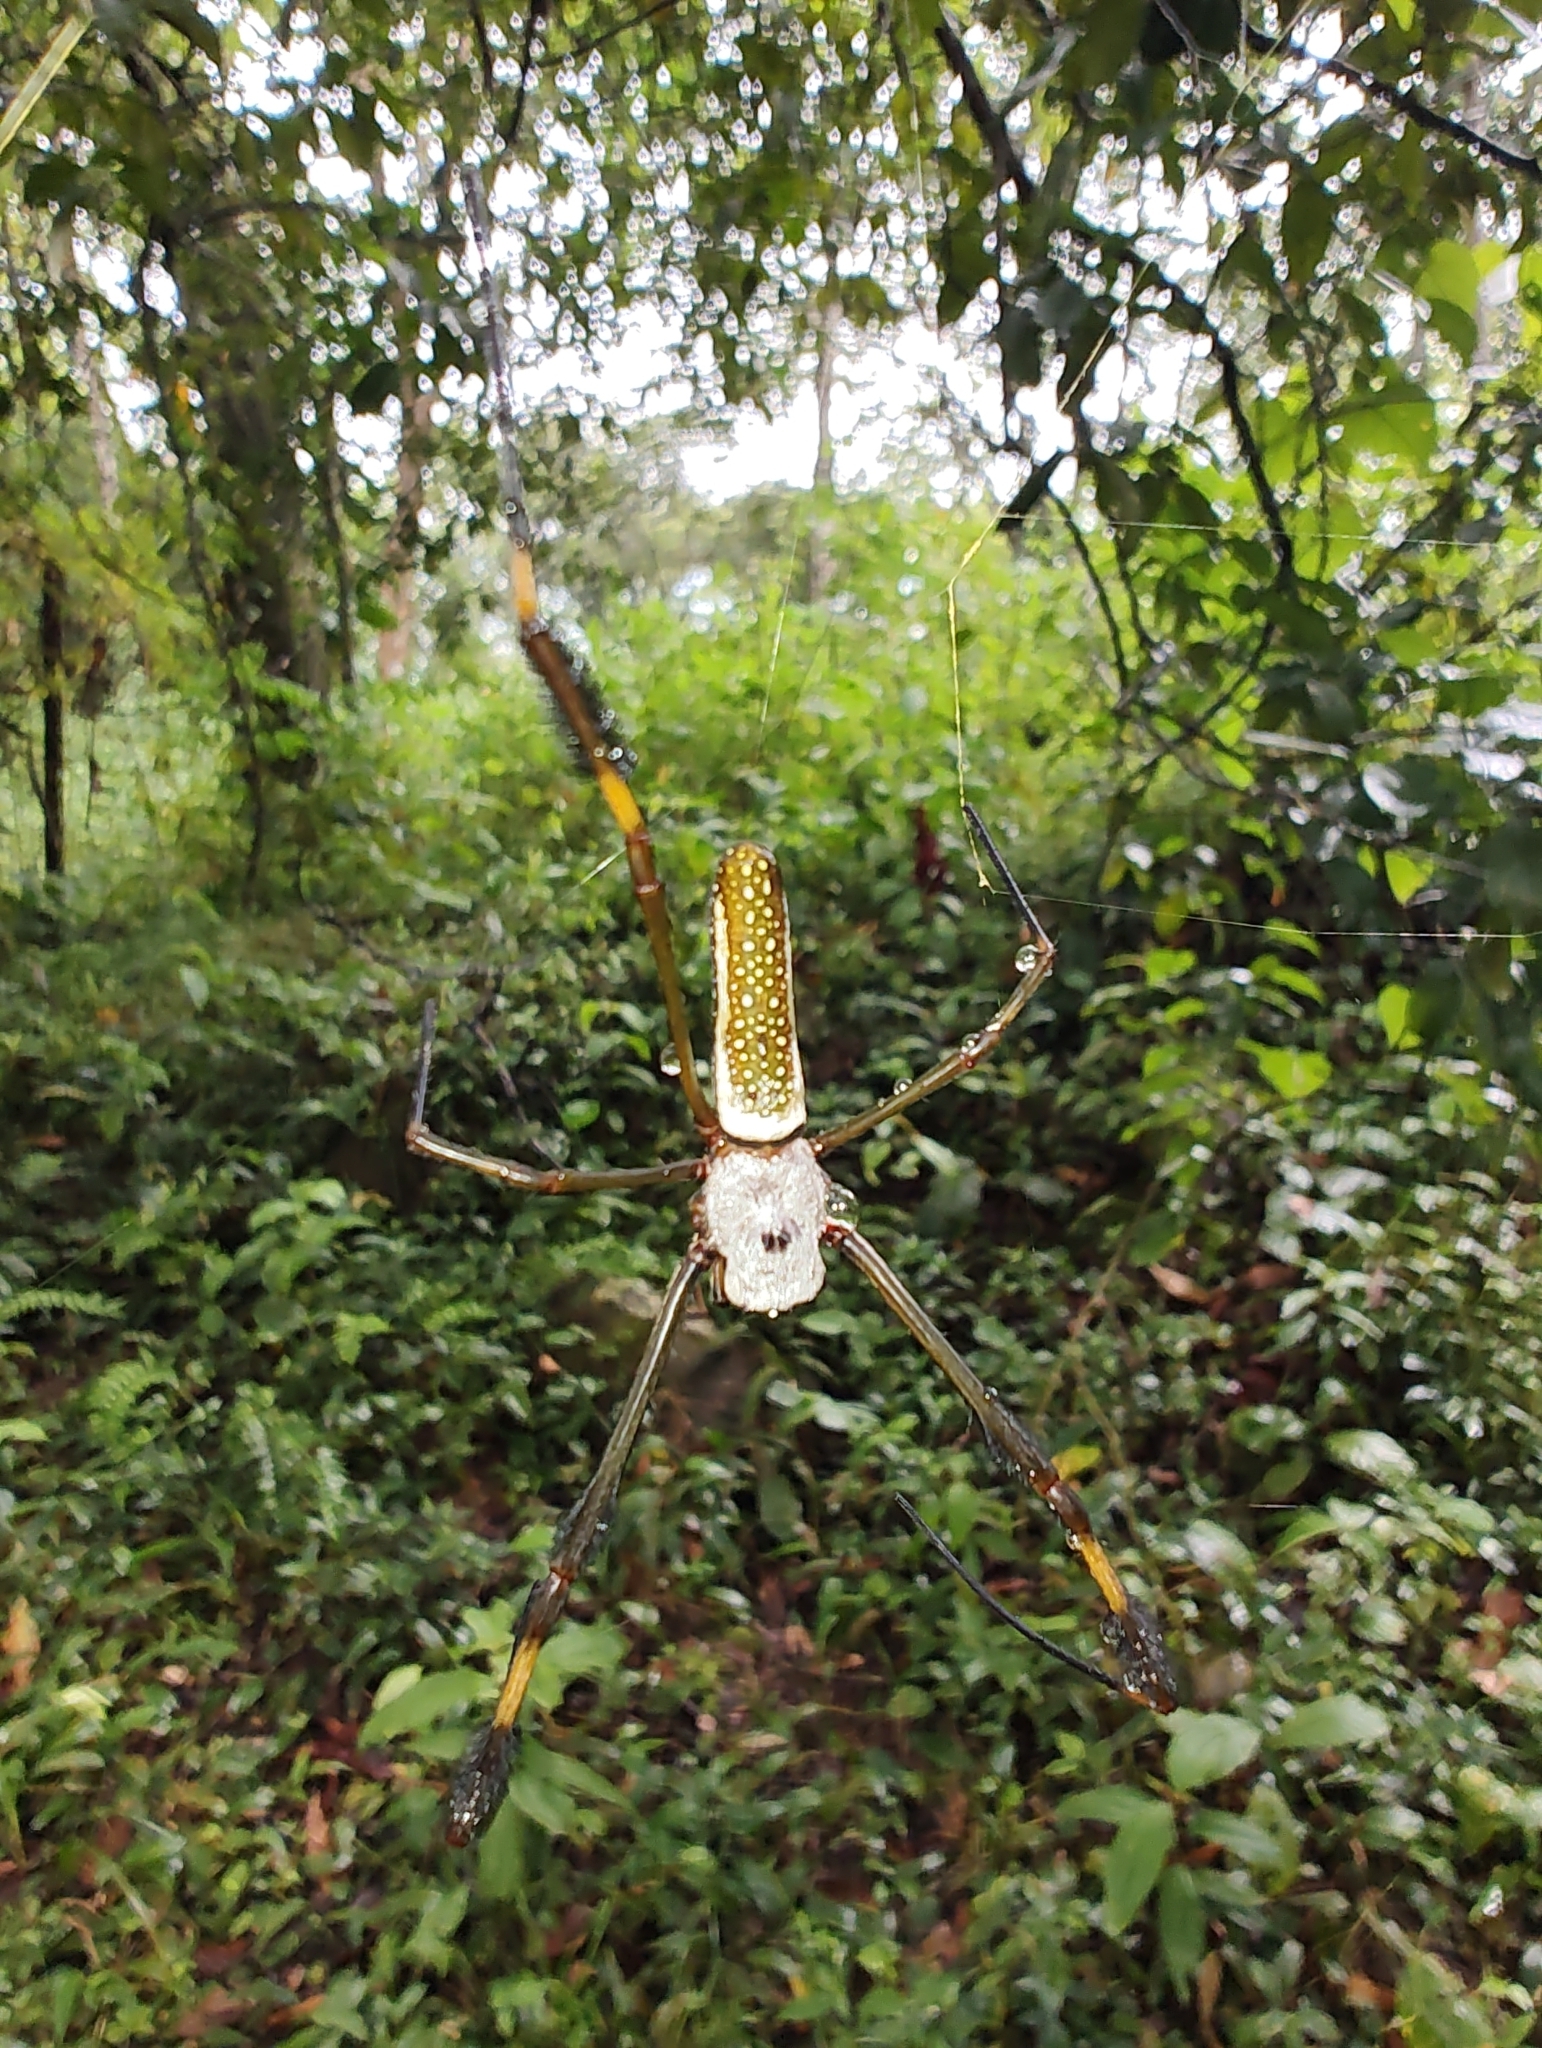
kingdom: Animalia
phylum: Arthropoda
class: Arachnida
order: Araneae
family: Araneidae
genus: Trichonephila
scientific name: Trichonephila clavipes
